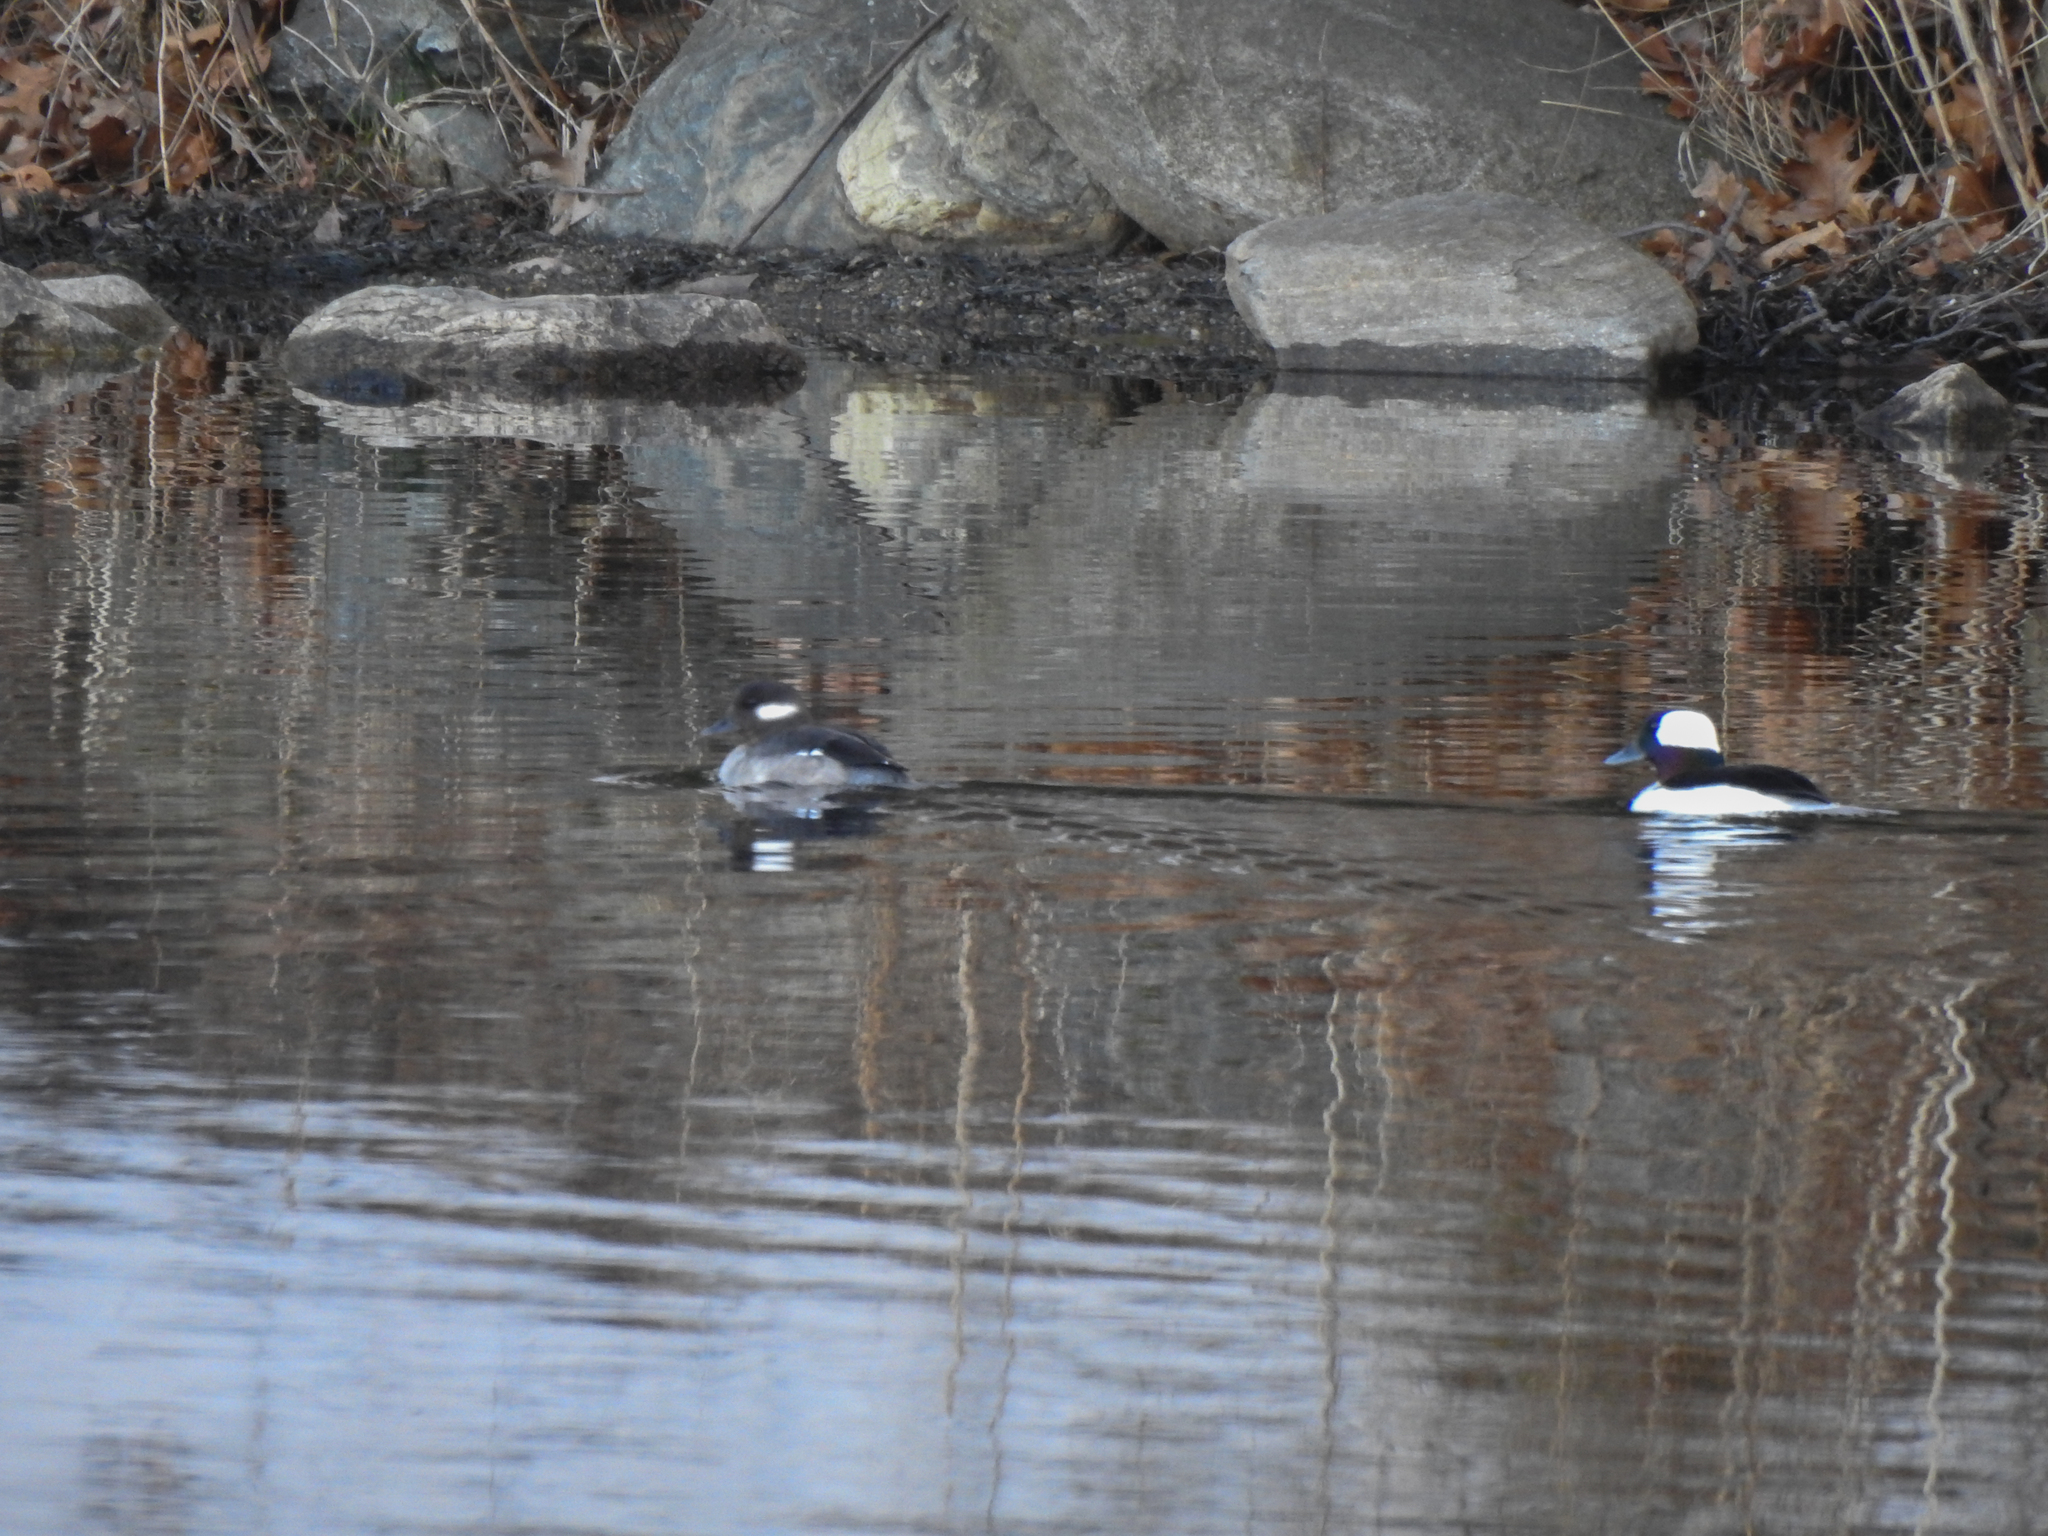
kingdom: Animalia
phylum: Chordata
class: Aves
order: Anseriformes
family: Anatidae
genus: Bucephala
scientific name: Bucephala albeola
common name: Bufflehead
